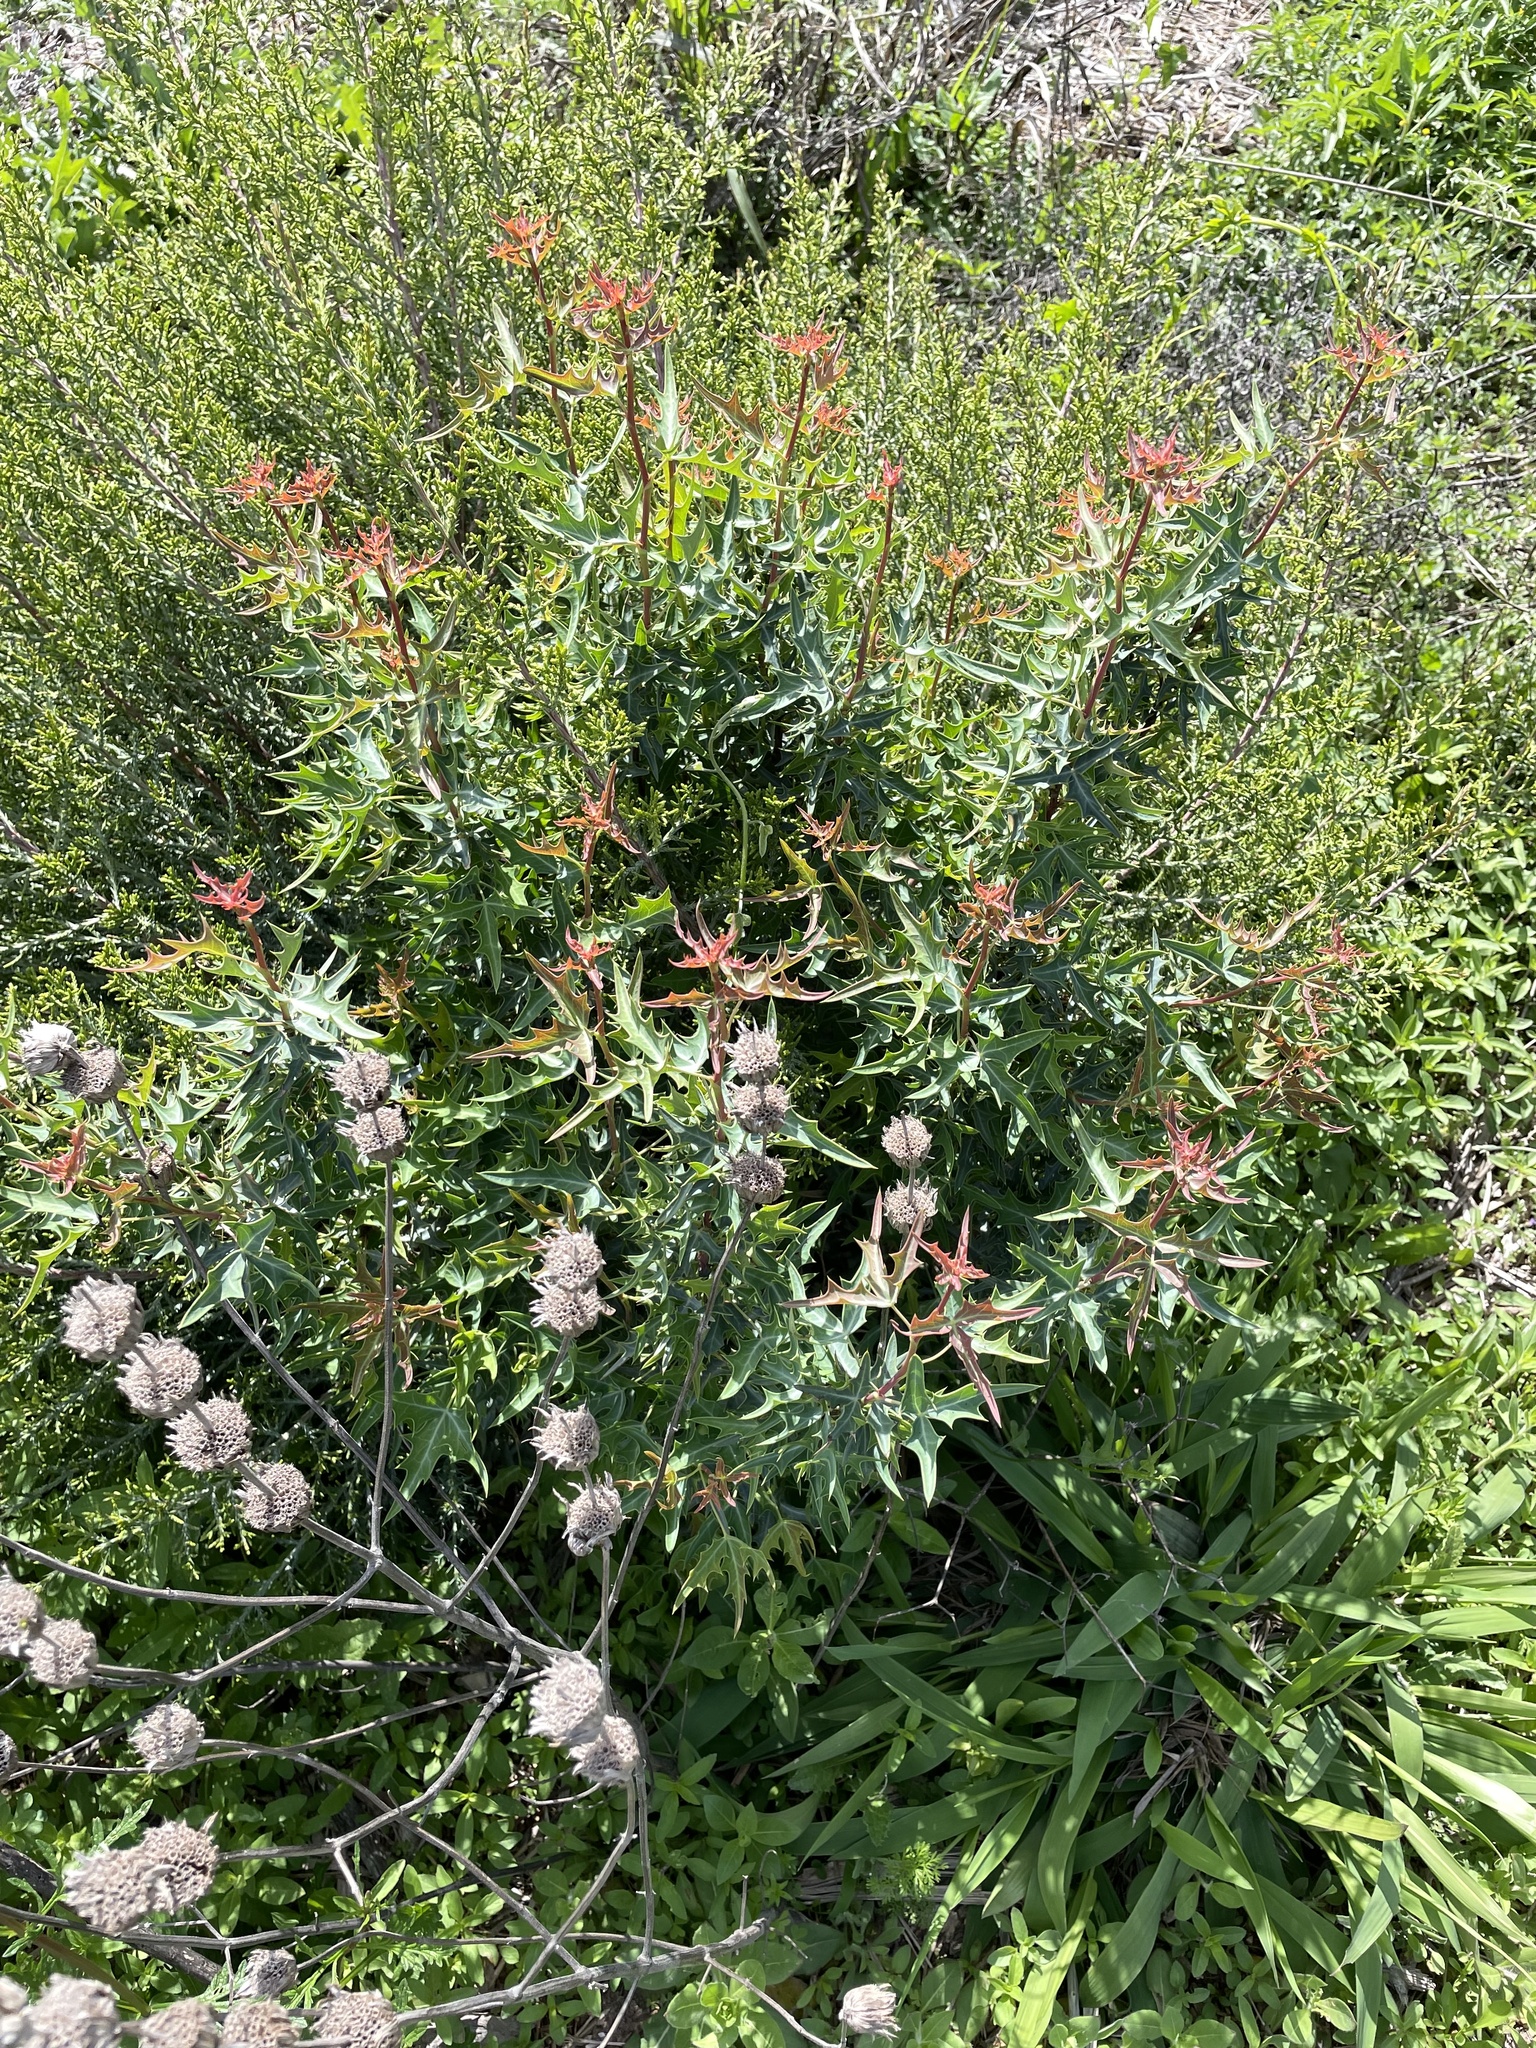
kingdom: Plantae
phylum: Tracheophyta
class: Magnoliopsida
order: Ranunculales
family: Berberidaceae
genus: Alloberberis
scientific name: Alloberberis trifoliolata
